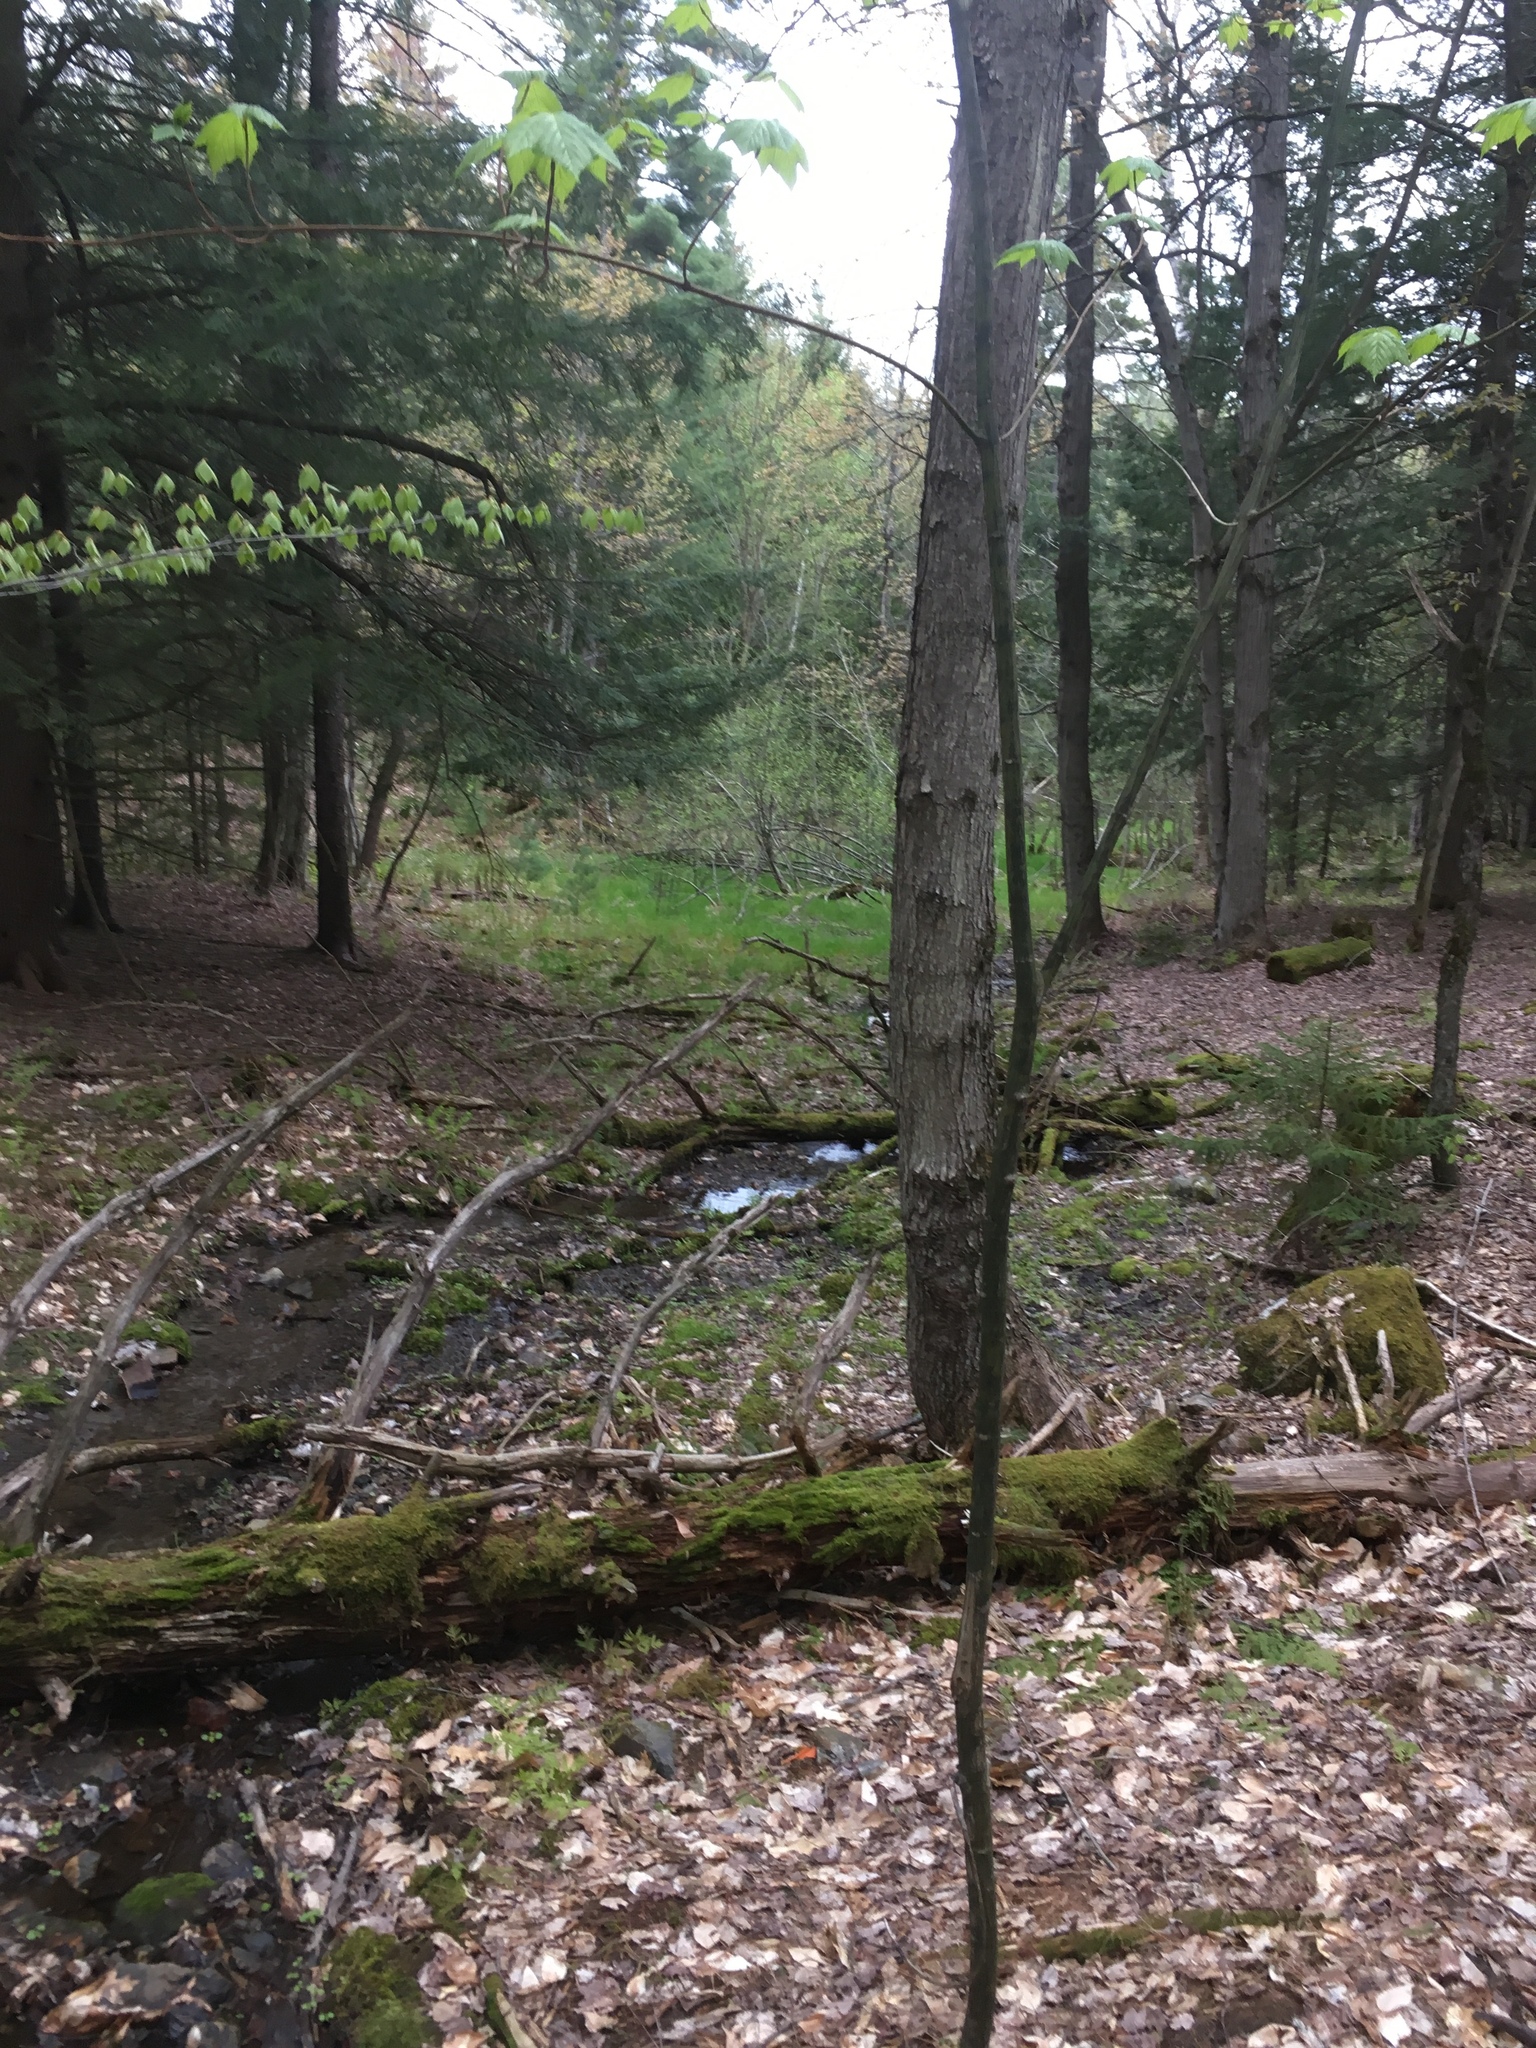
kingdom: Plantae
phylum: Tracheophyta
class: Magnoliopsida
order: Sapindales
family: Sapindaceae
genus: Acer
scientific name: Acer pensylvanicum
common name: Moosewood
